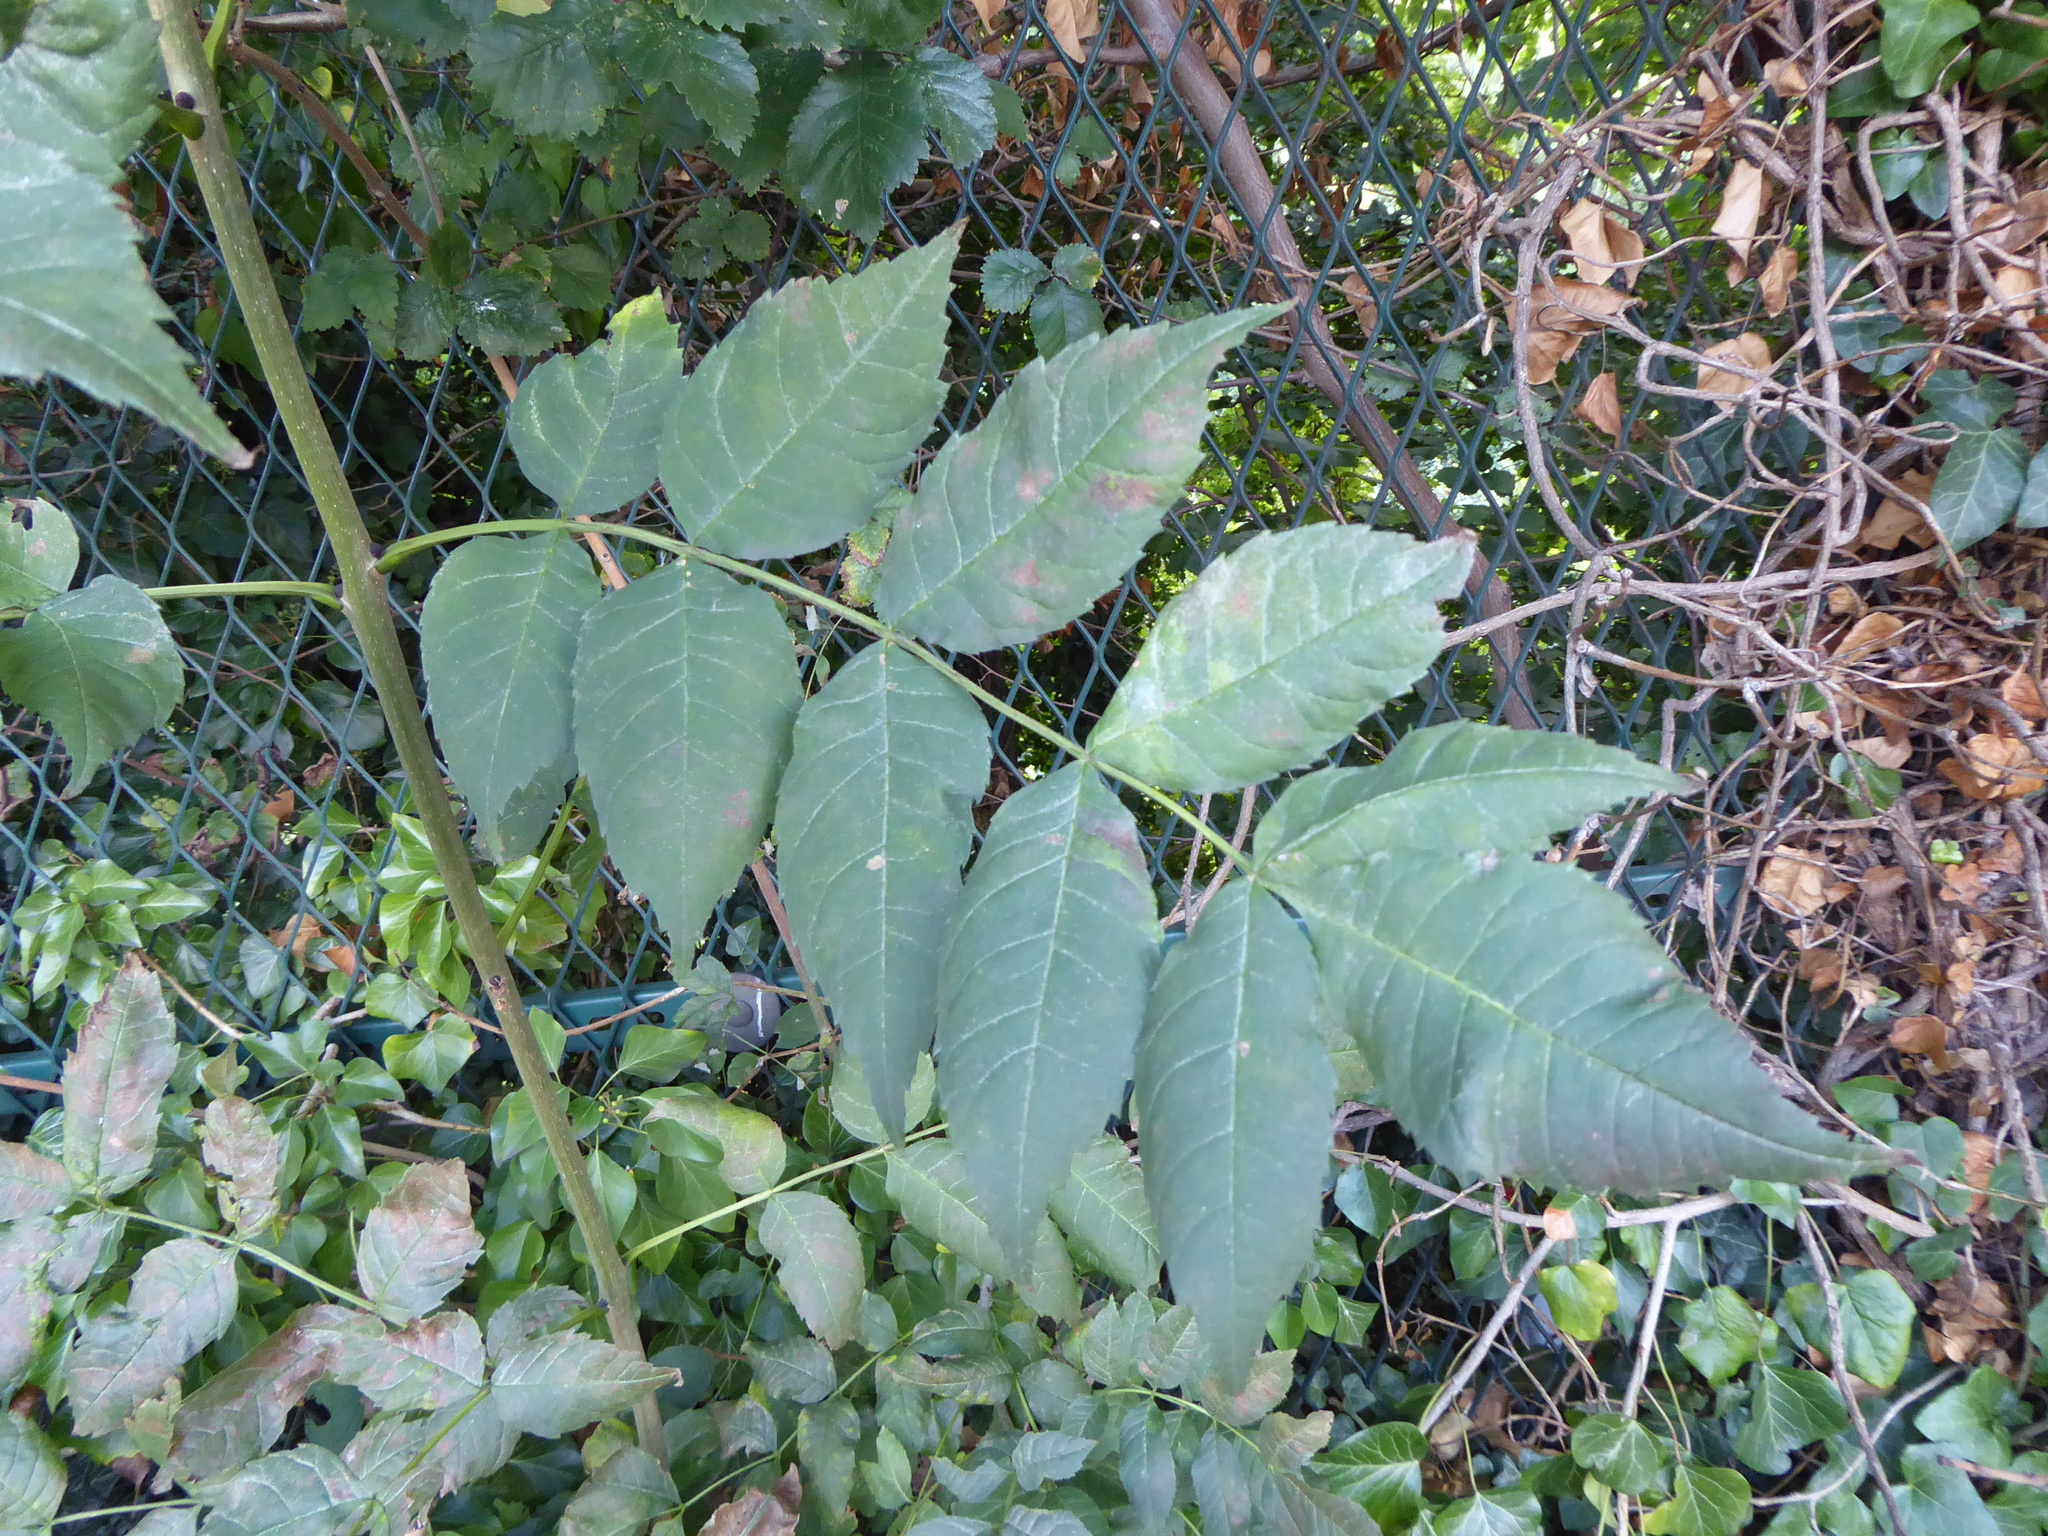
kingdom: Plantae
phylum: Tracheophyta
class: Magnoliopsida
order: Lamiales
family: Oleaceae
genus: Fraxinus
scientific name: Fraxinus excelsior
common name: European ash
